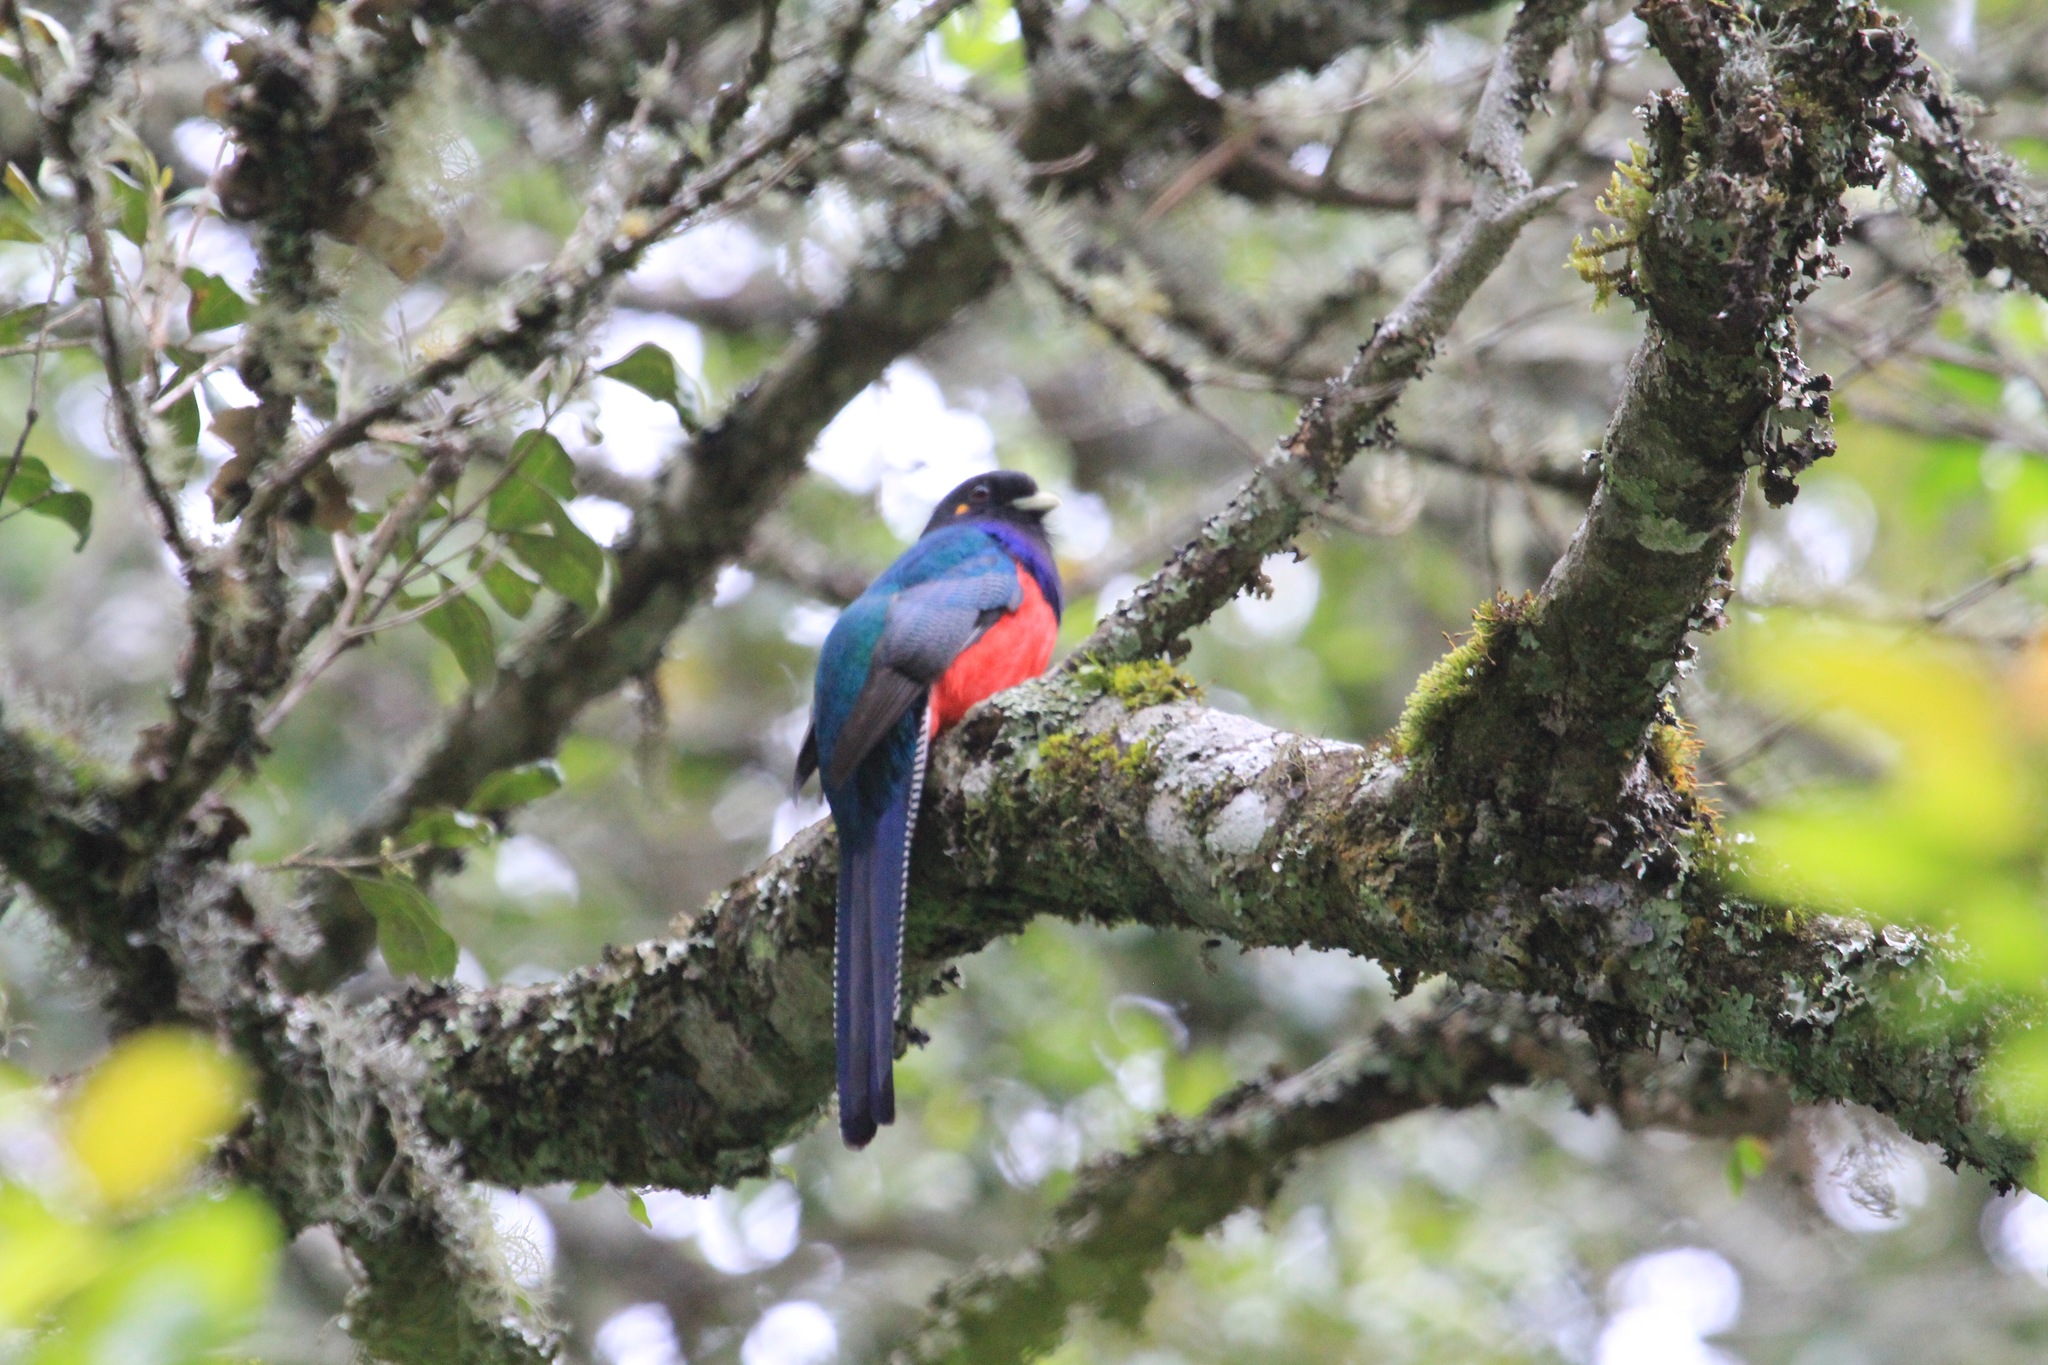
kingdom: Animalia
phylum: Chordata
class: Aves
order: Trogoniformes
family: Trogonidae
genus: Apaloderma
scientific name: Apaloderma vittatum
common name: Bar-tailed trogon
